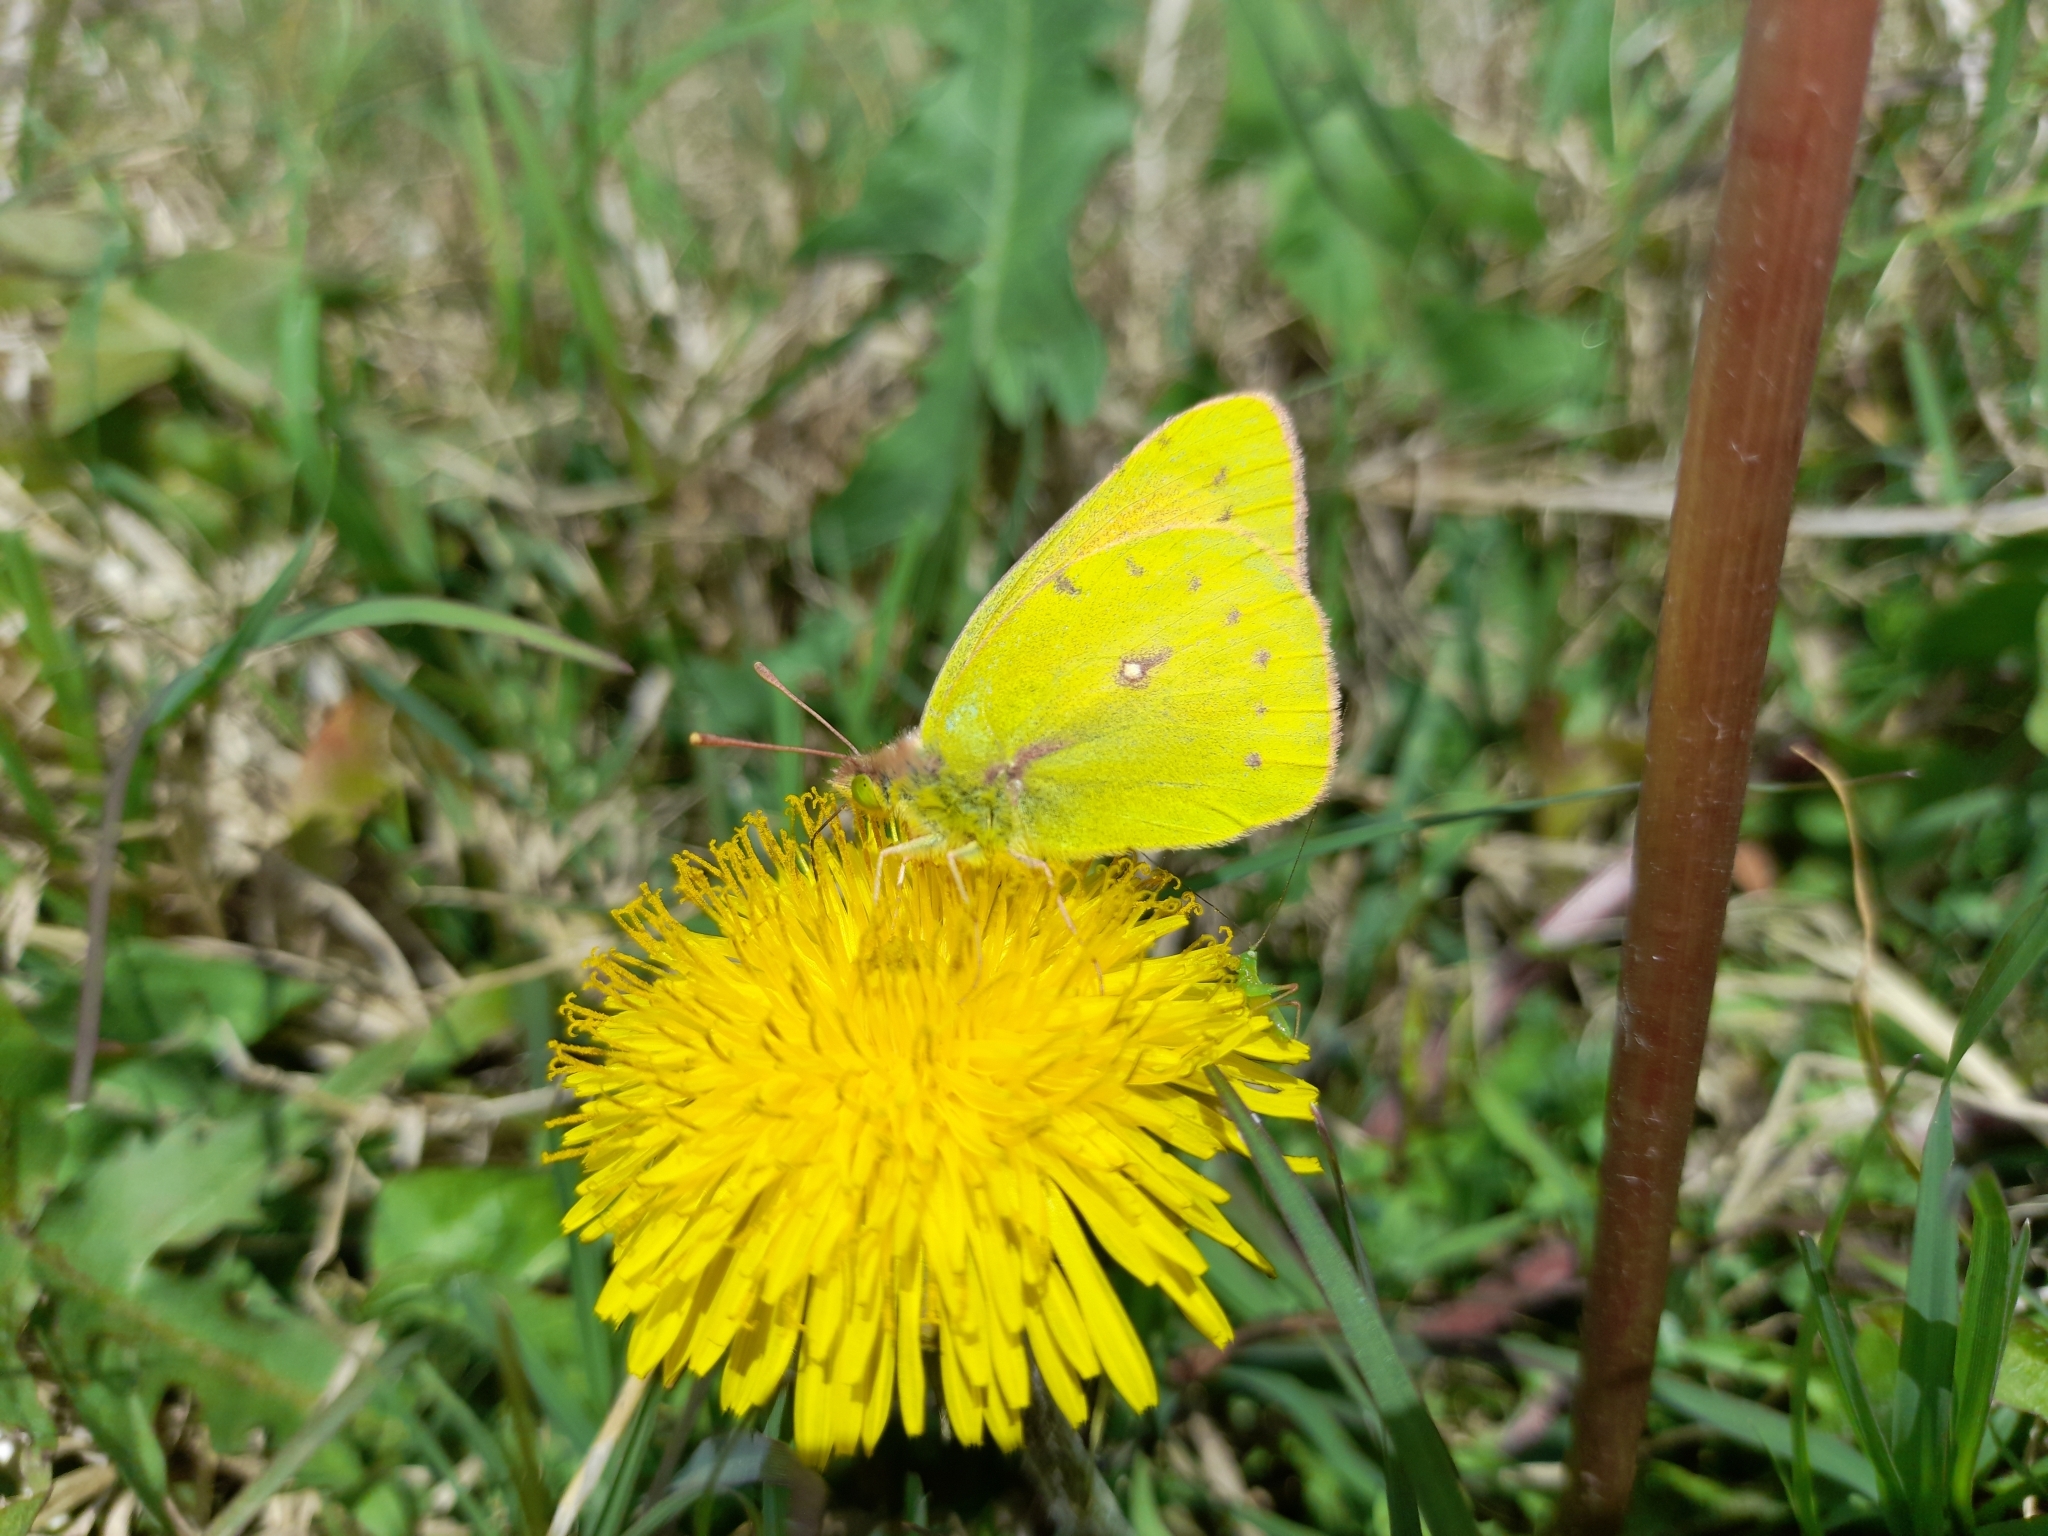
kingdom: Animalia
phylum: Arthropoda
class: Insecta
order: Lepidoptera
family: Pieridae
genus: Colias
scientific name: Colias lesbia
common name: Lesbia clouded yellow
